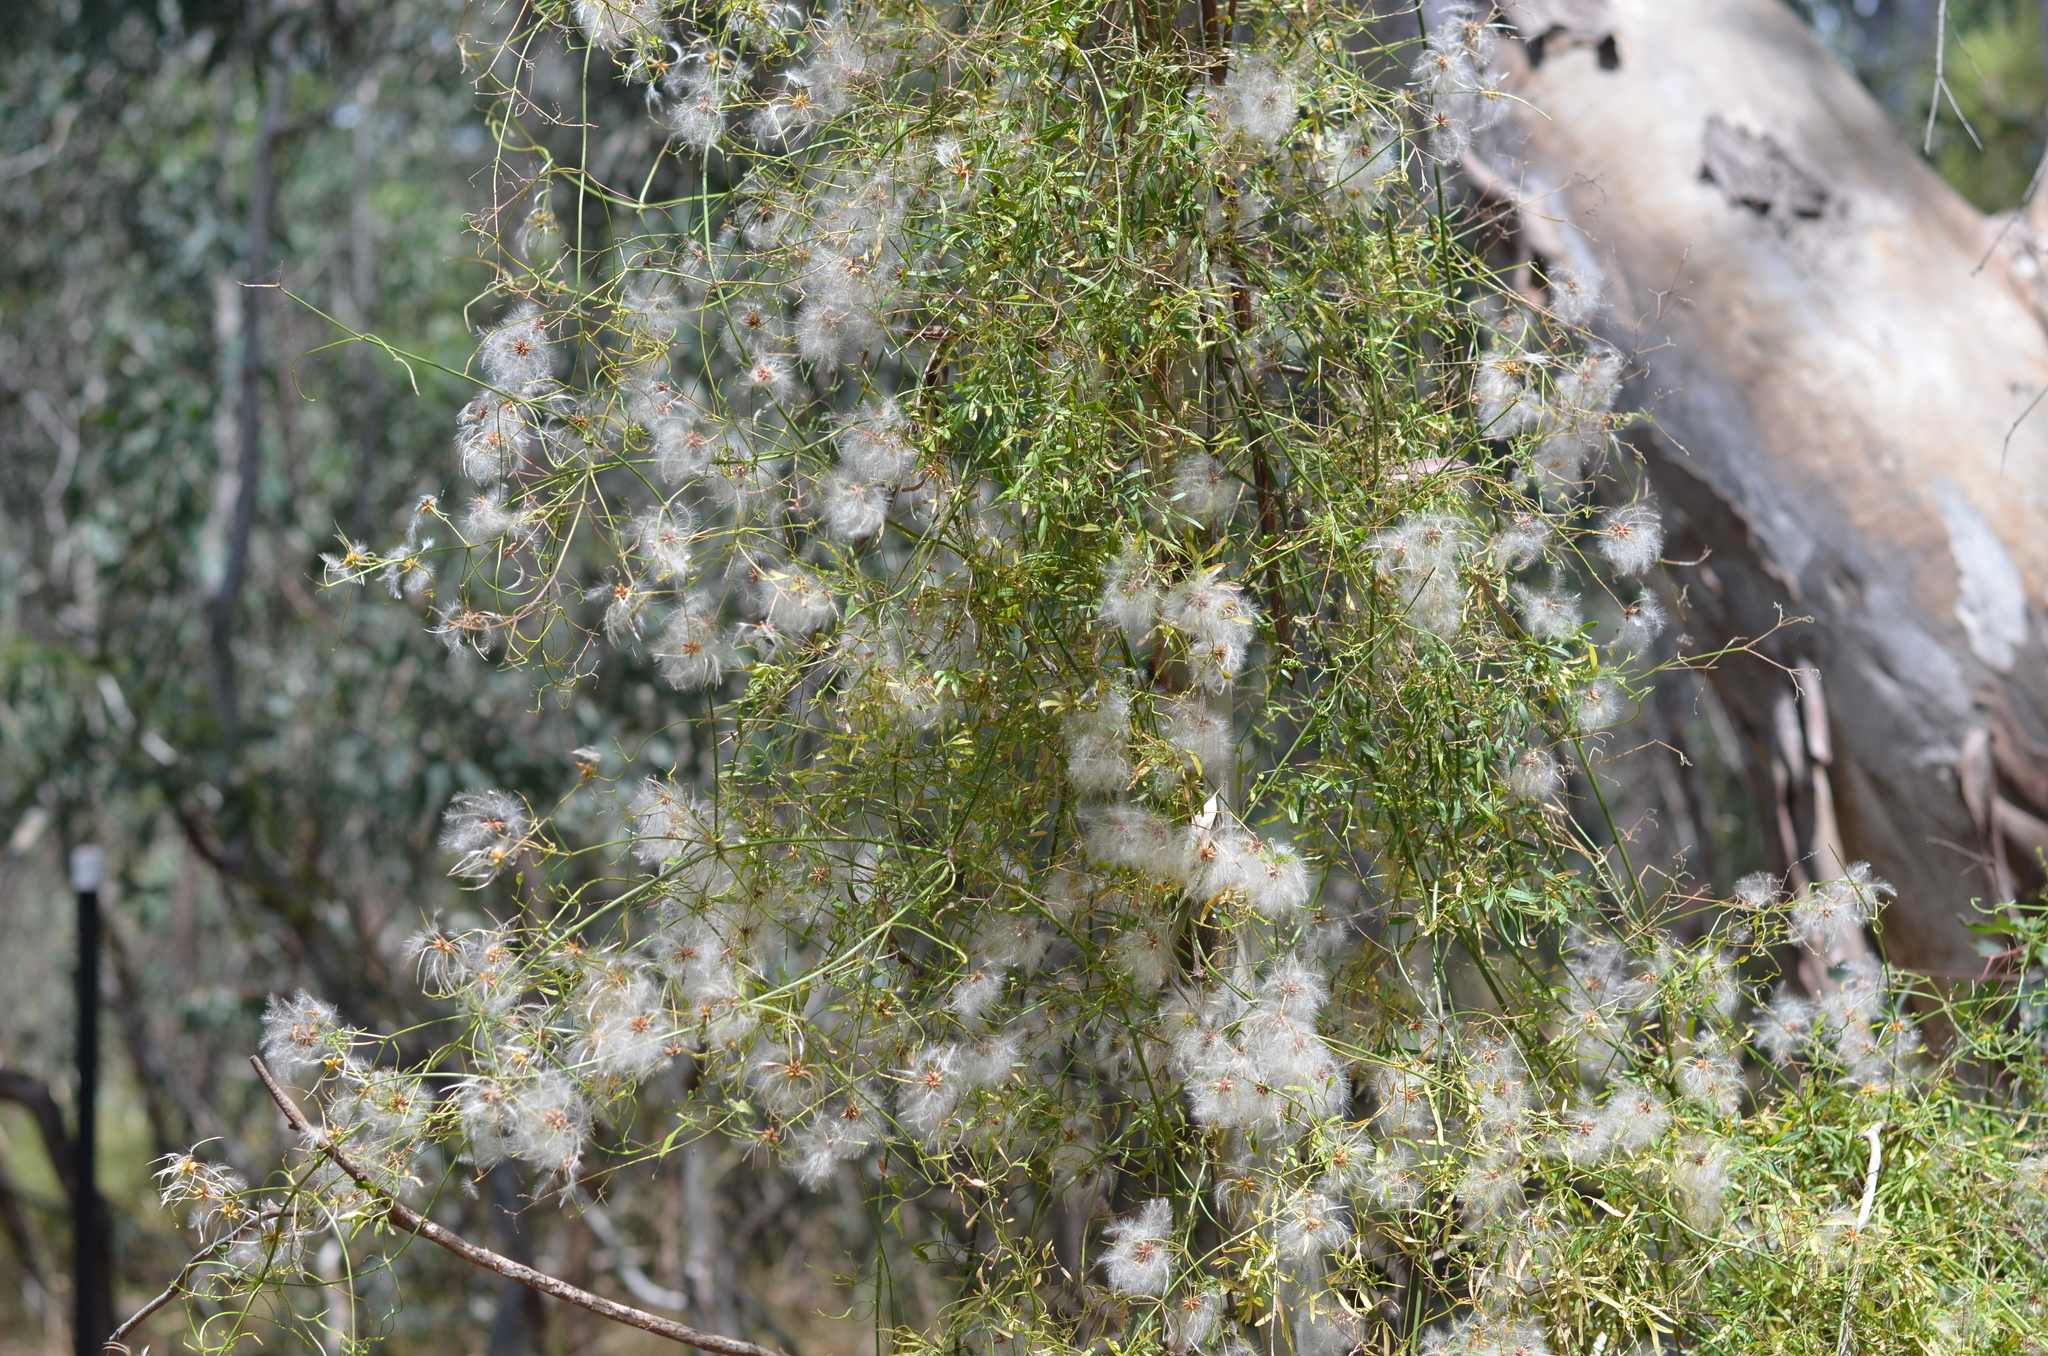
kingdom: Plantae
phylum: Tracheophyta
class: Magnoliopsida
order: Ranunculales
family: Ranunculaceae
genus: Clematis
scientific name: Clematis microphylla
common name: Headachevine
